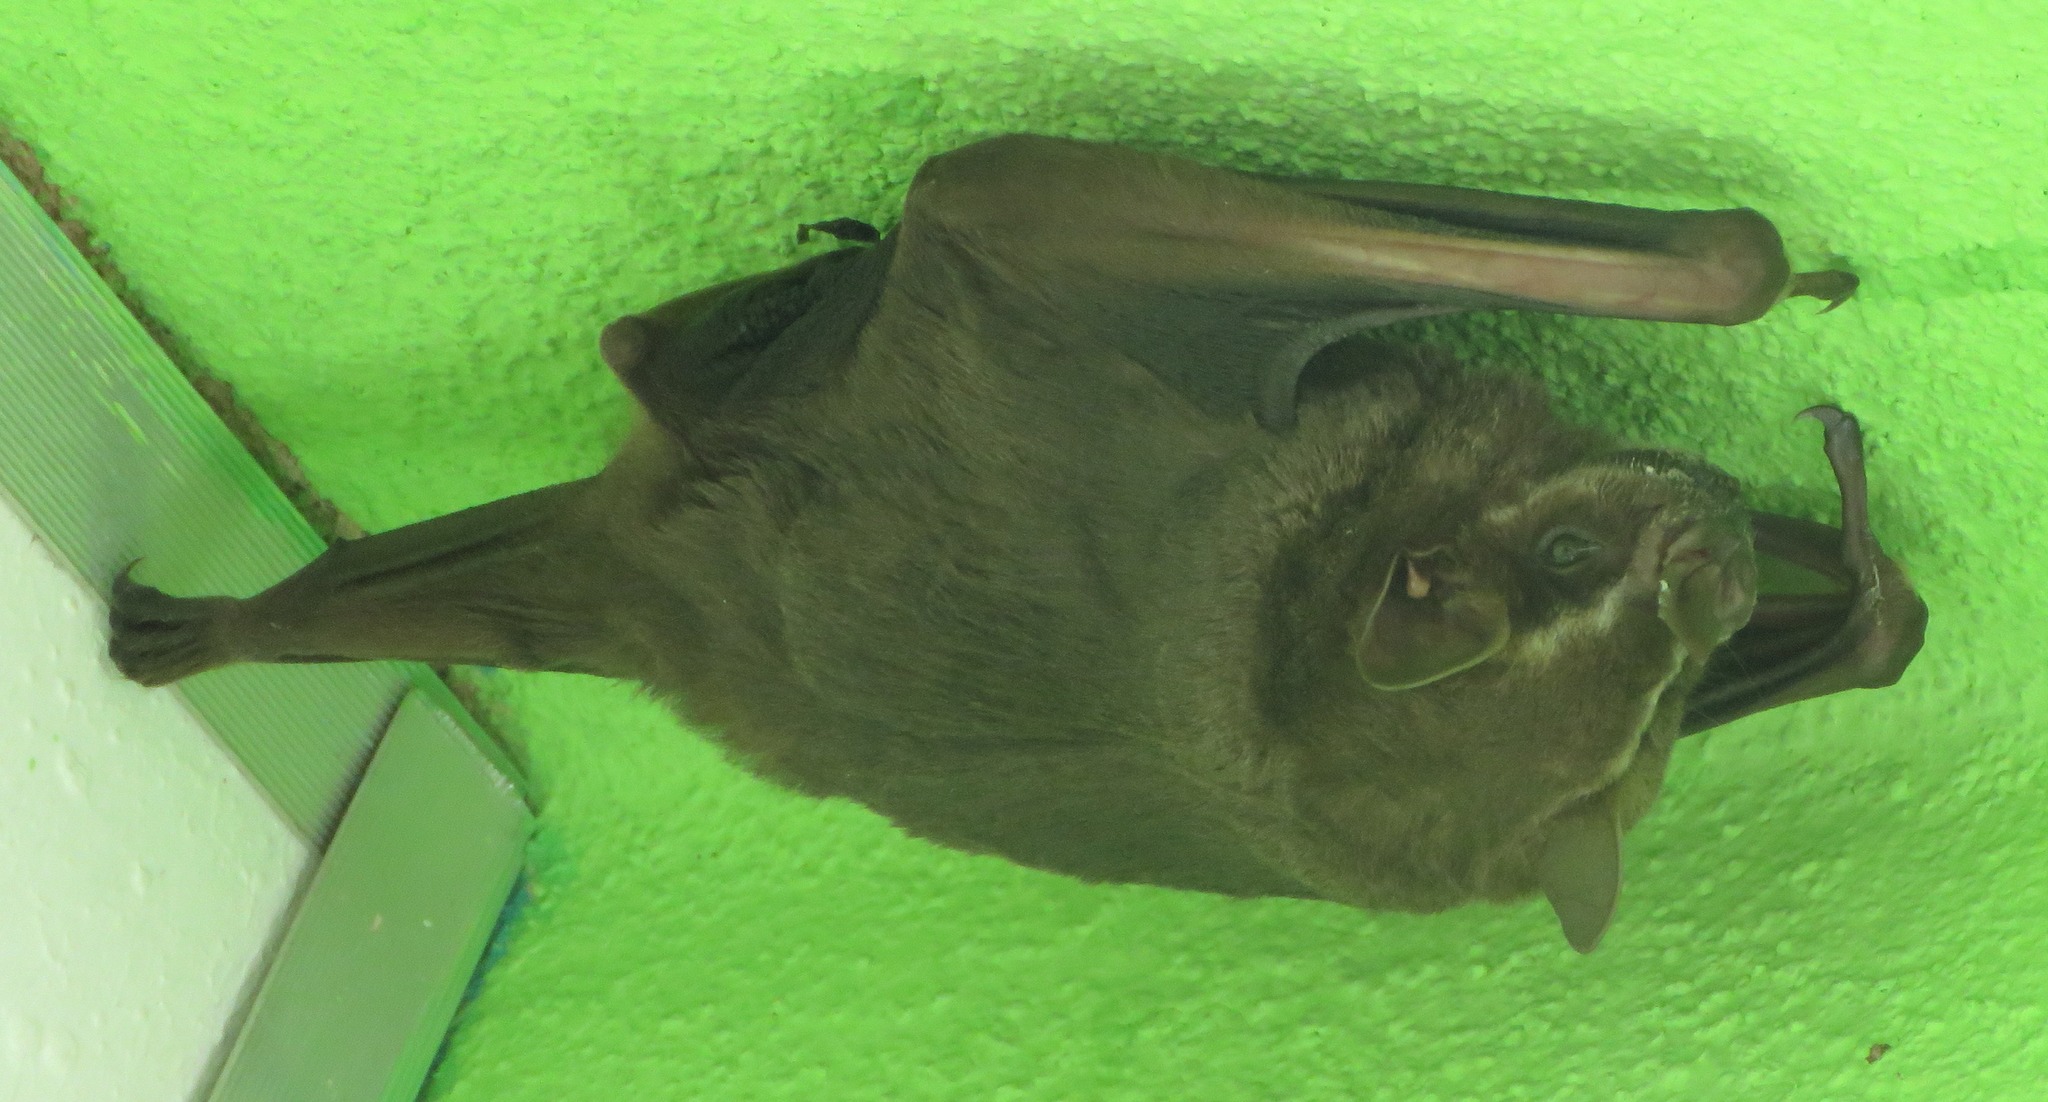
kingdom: Animalia
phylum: Chordata
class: Mammalia
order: Chiroptera
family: Phyllostomidae
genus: Artibeus
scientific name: Artibeus lituratus
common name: Great fruit-eating bat
